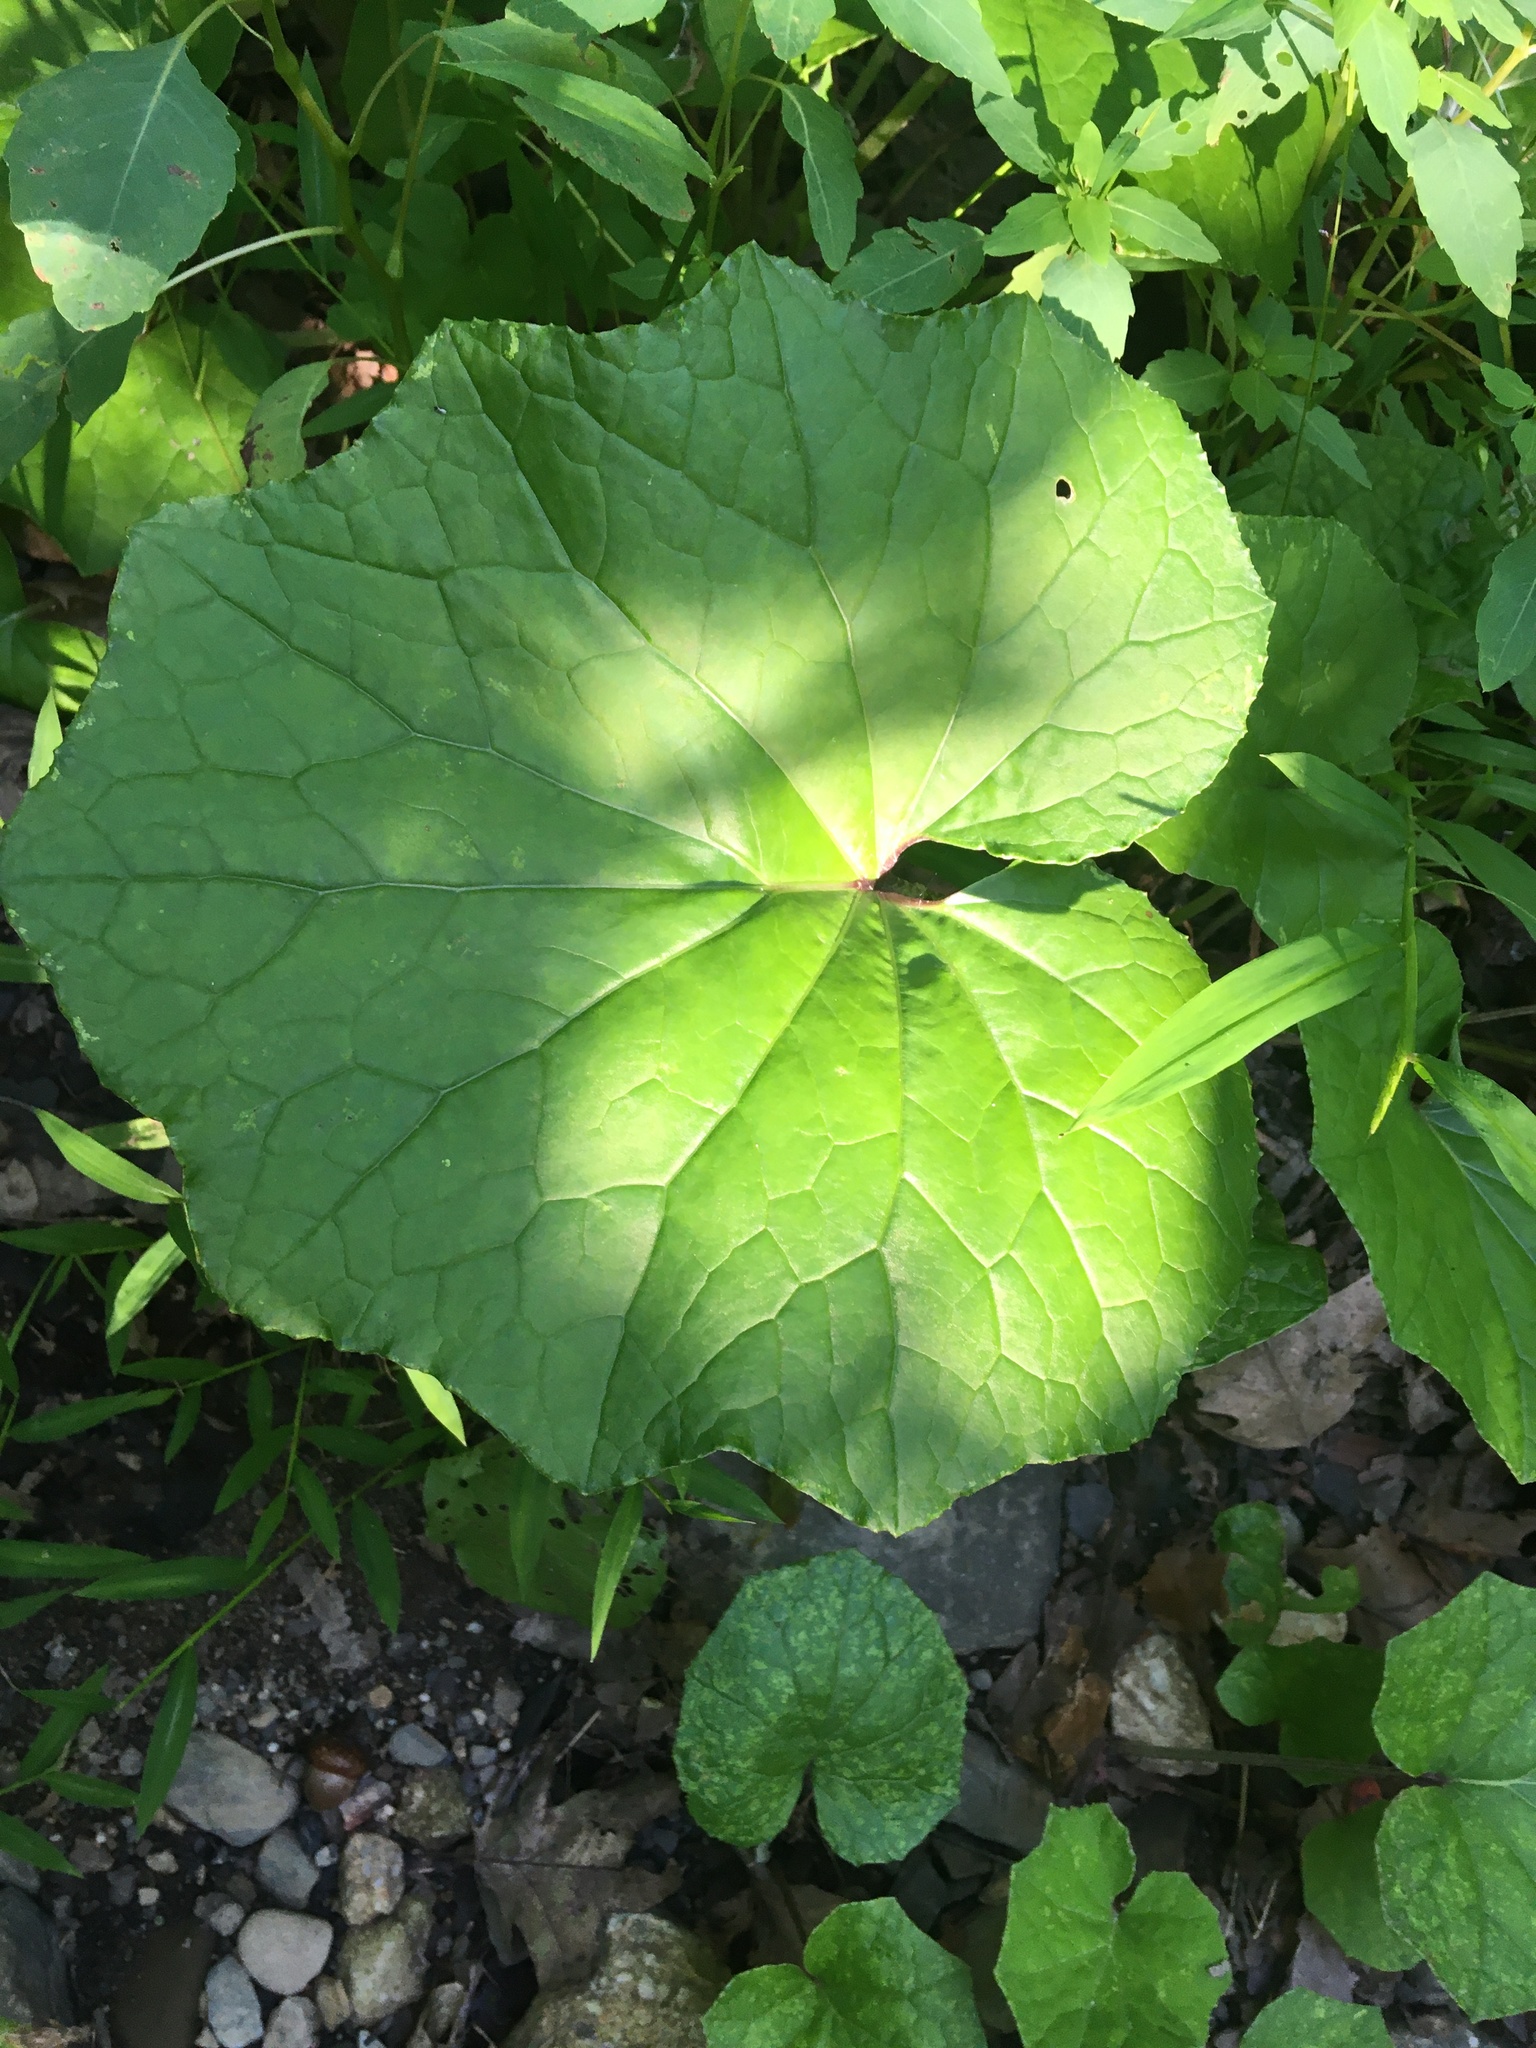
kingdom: Plantae
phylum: Tracheophyta
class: Magnoliopsida
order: Asterales
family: Asteraceae
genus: Tussilago
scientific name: Tussilago farfara
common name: Coltsfoot
